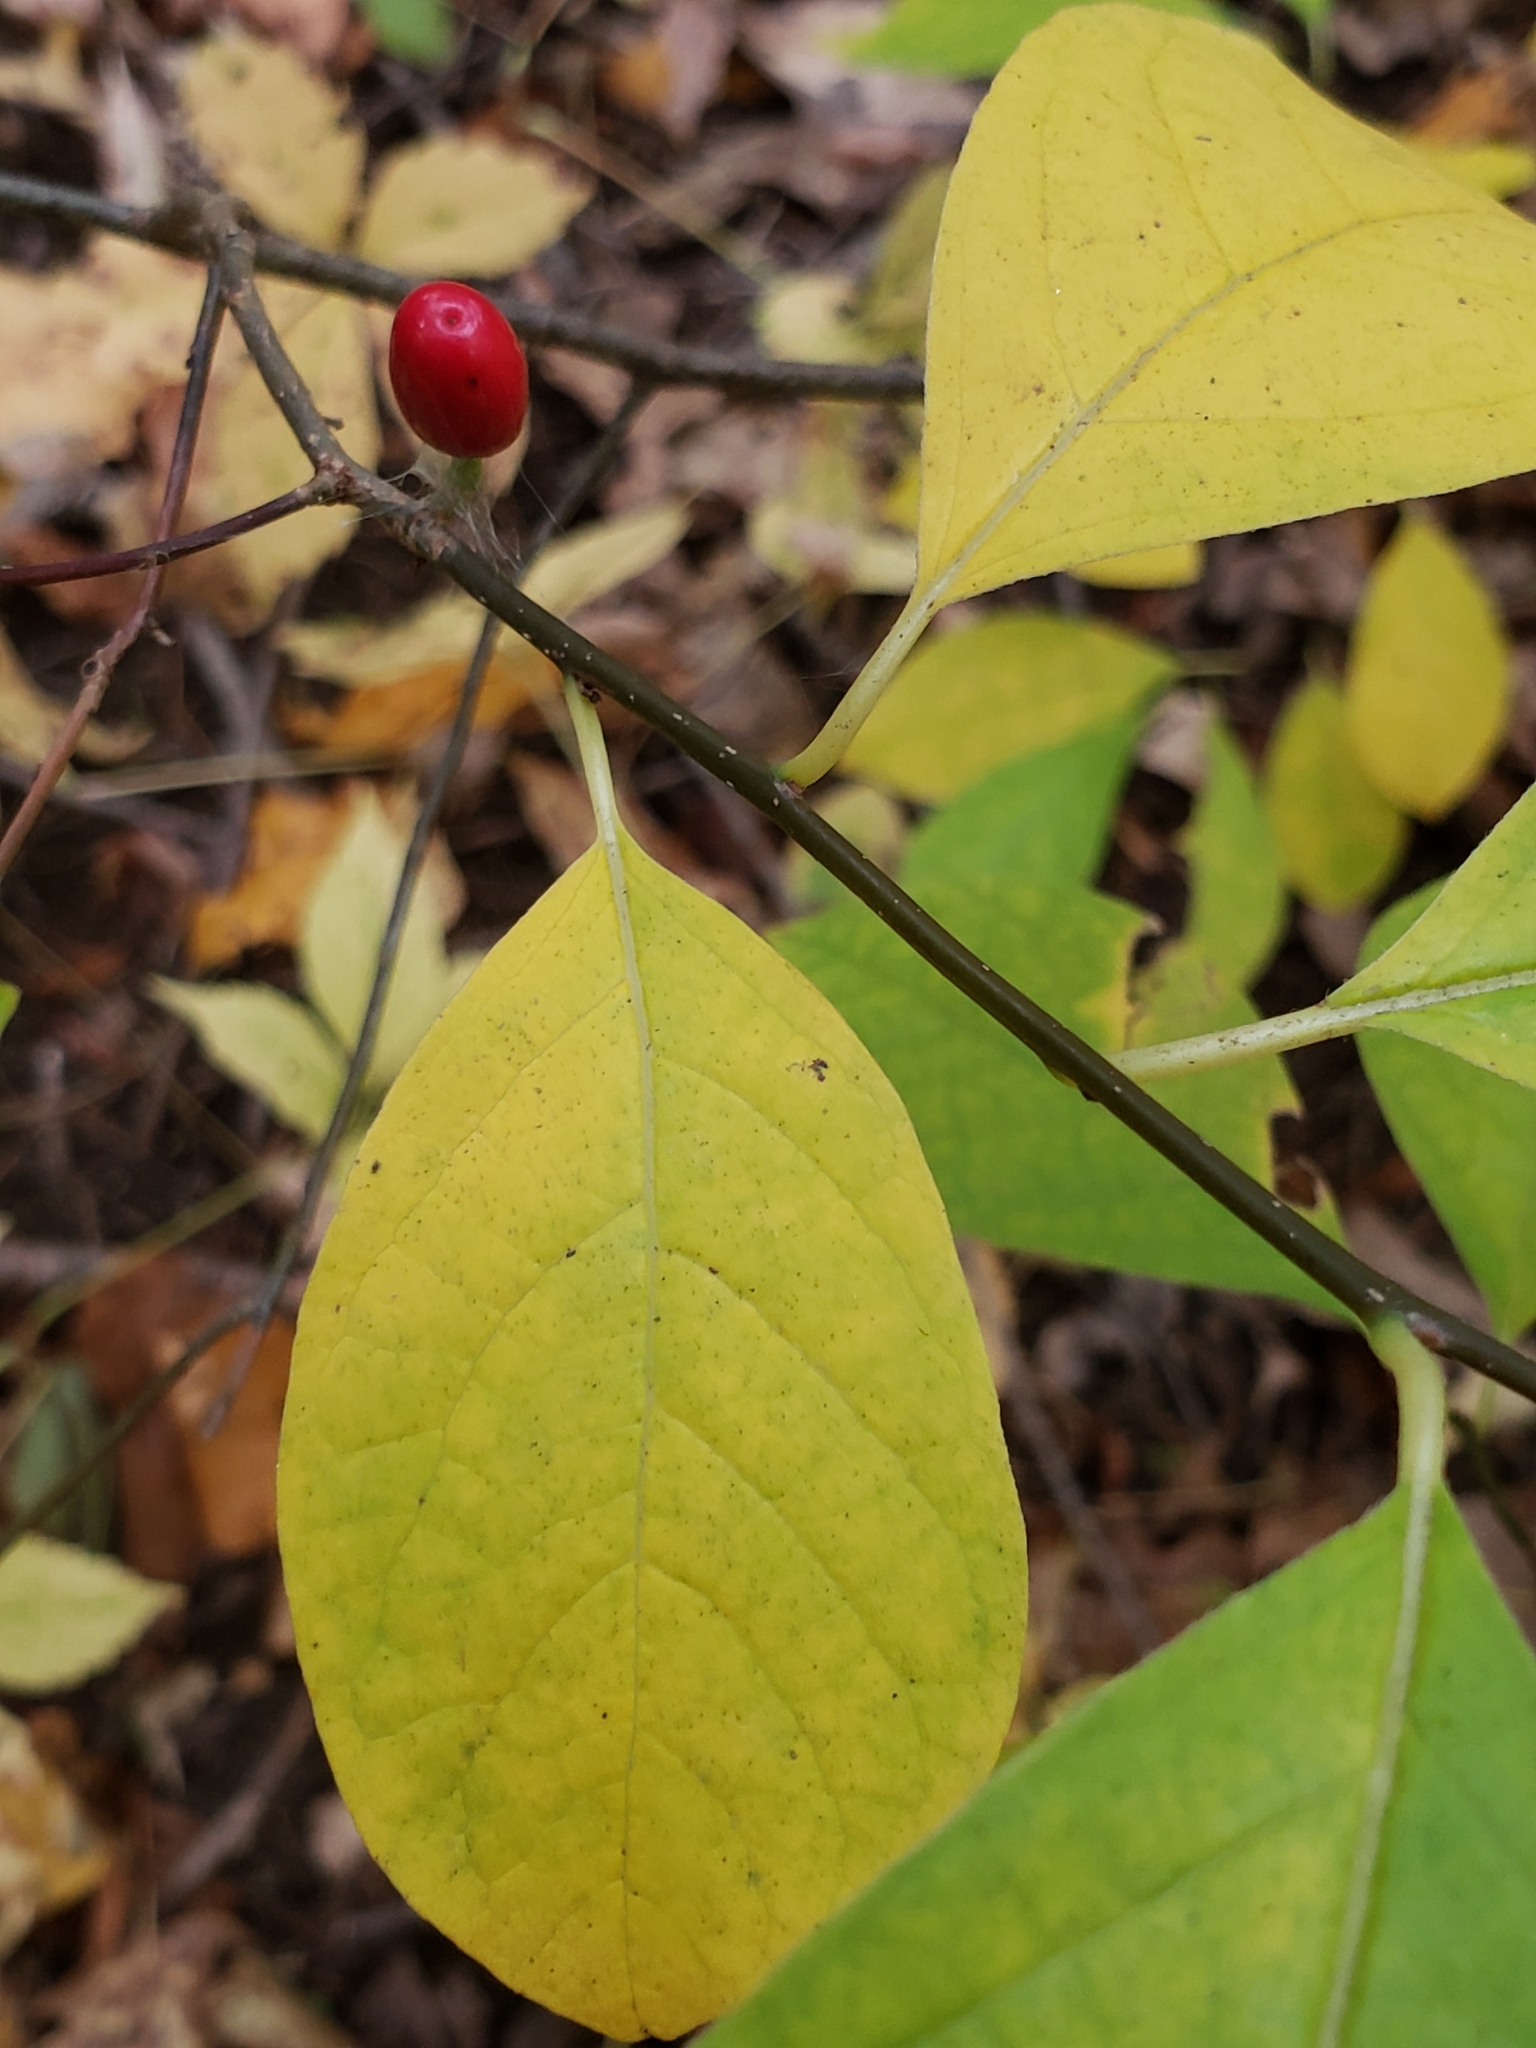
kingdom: Plantae
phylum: Tracheophyta
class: Magnoliopsida
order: Laurales
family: Lauraceae
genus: Lindera
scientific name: Lindera benzoin
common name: Spicebush
